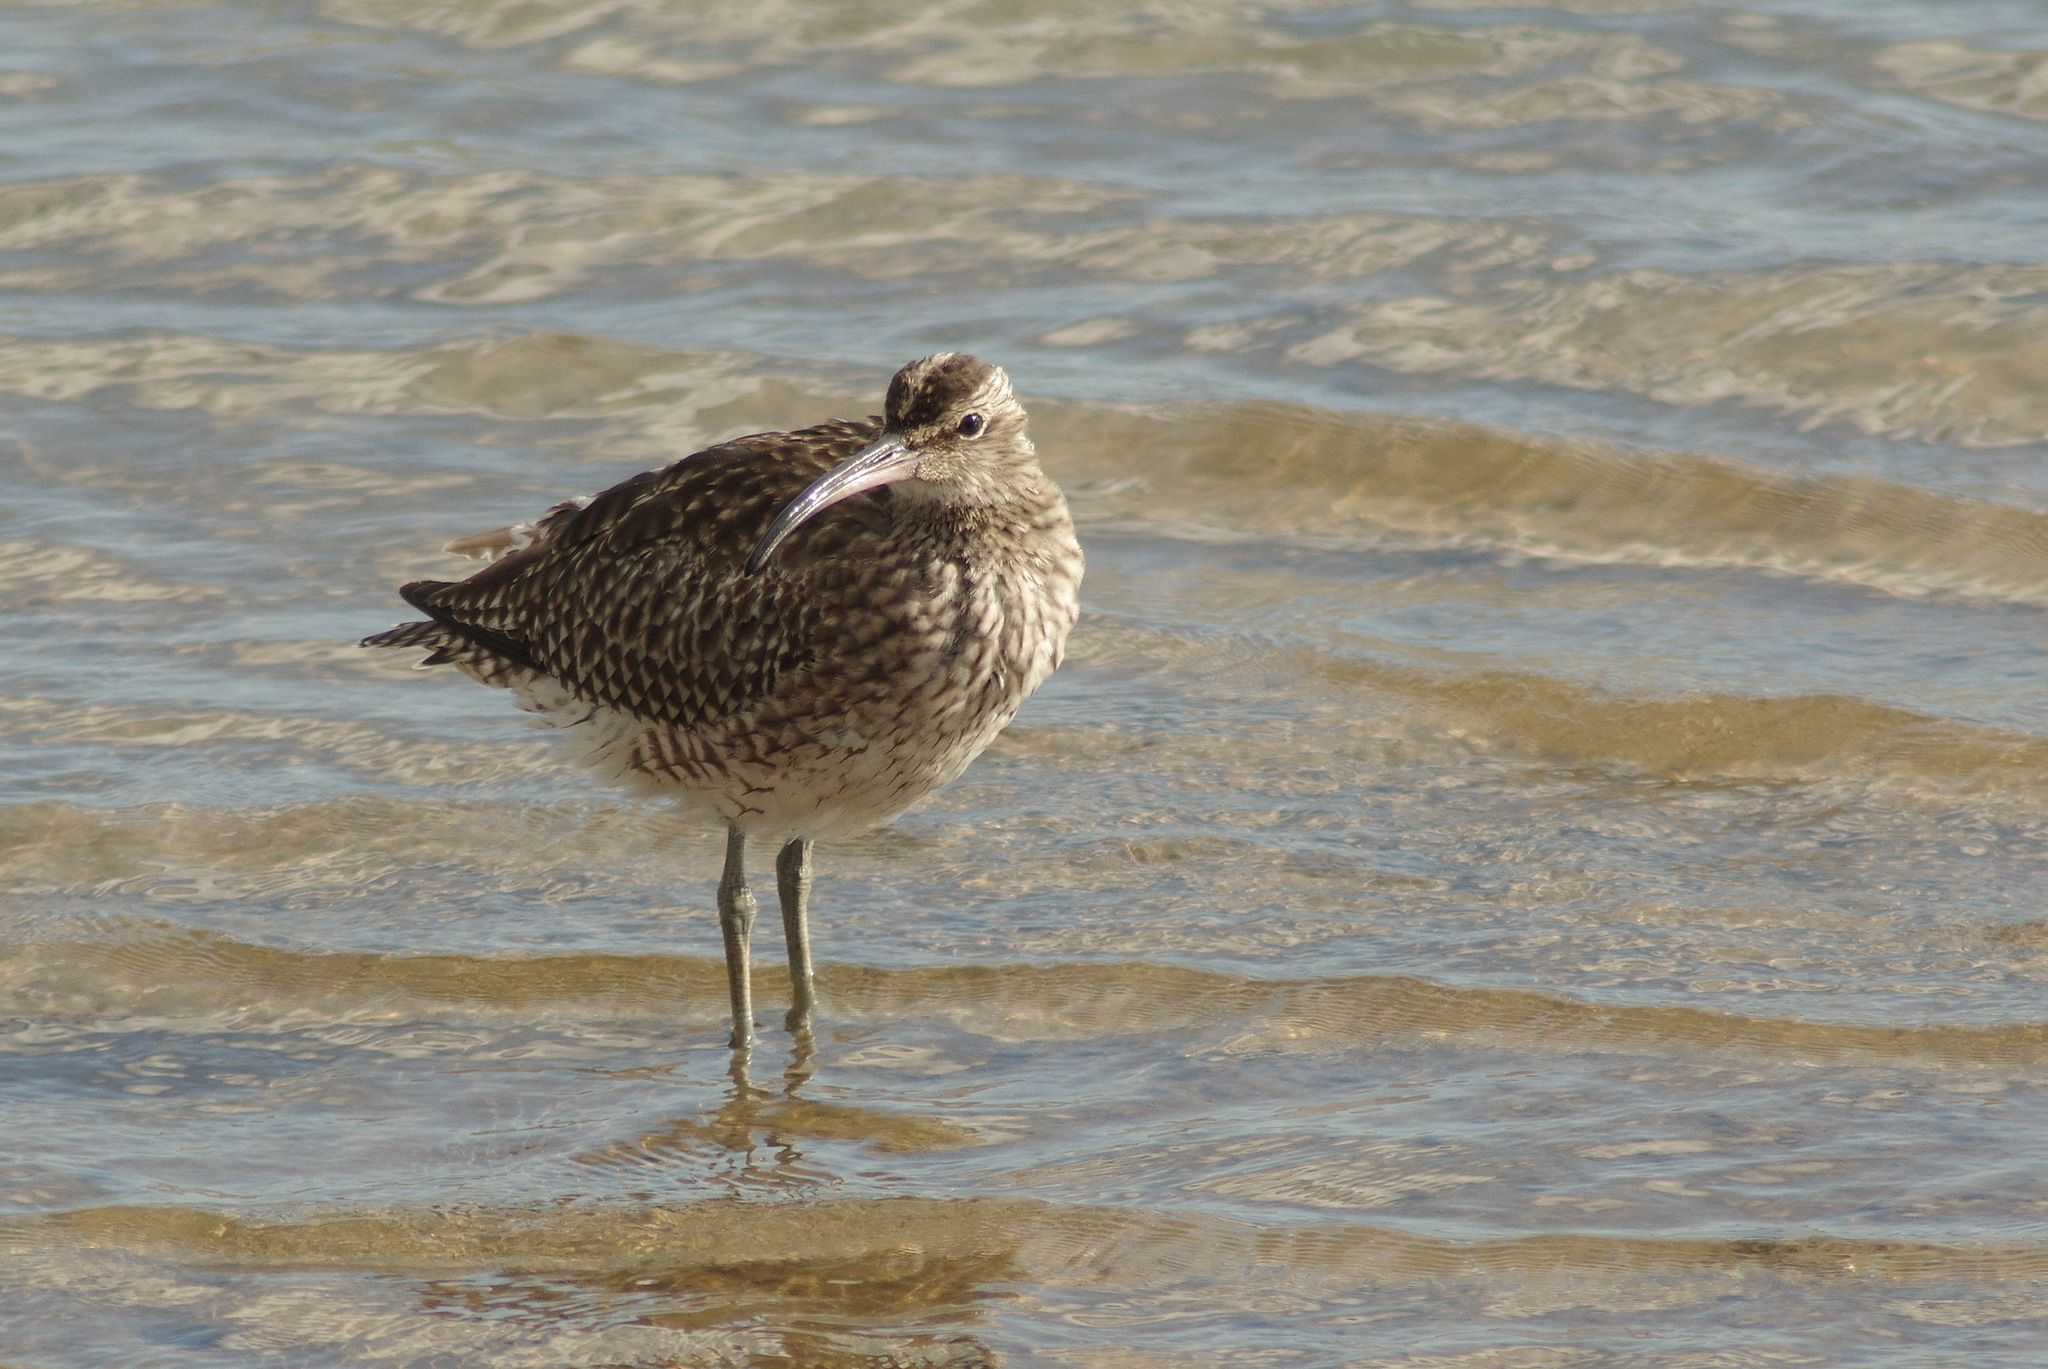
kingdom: Animalia
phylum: Chordata
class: Aves
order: Charadriiformes
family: Scolopacidae
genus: Numenius
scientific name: Numenius phaeopus
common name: Whimbrel
